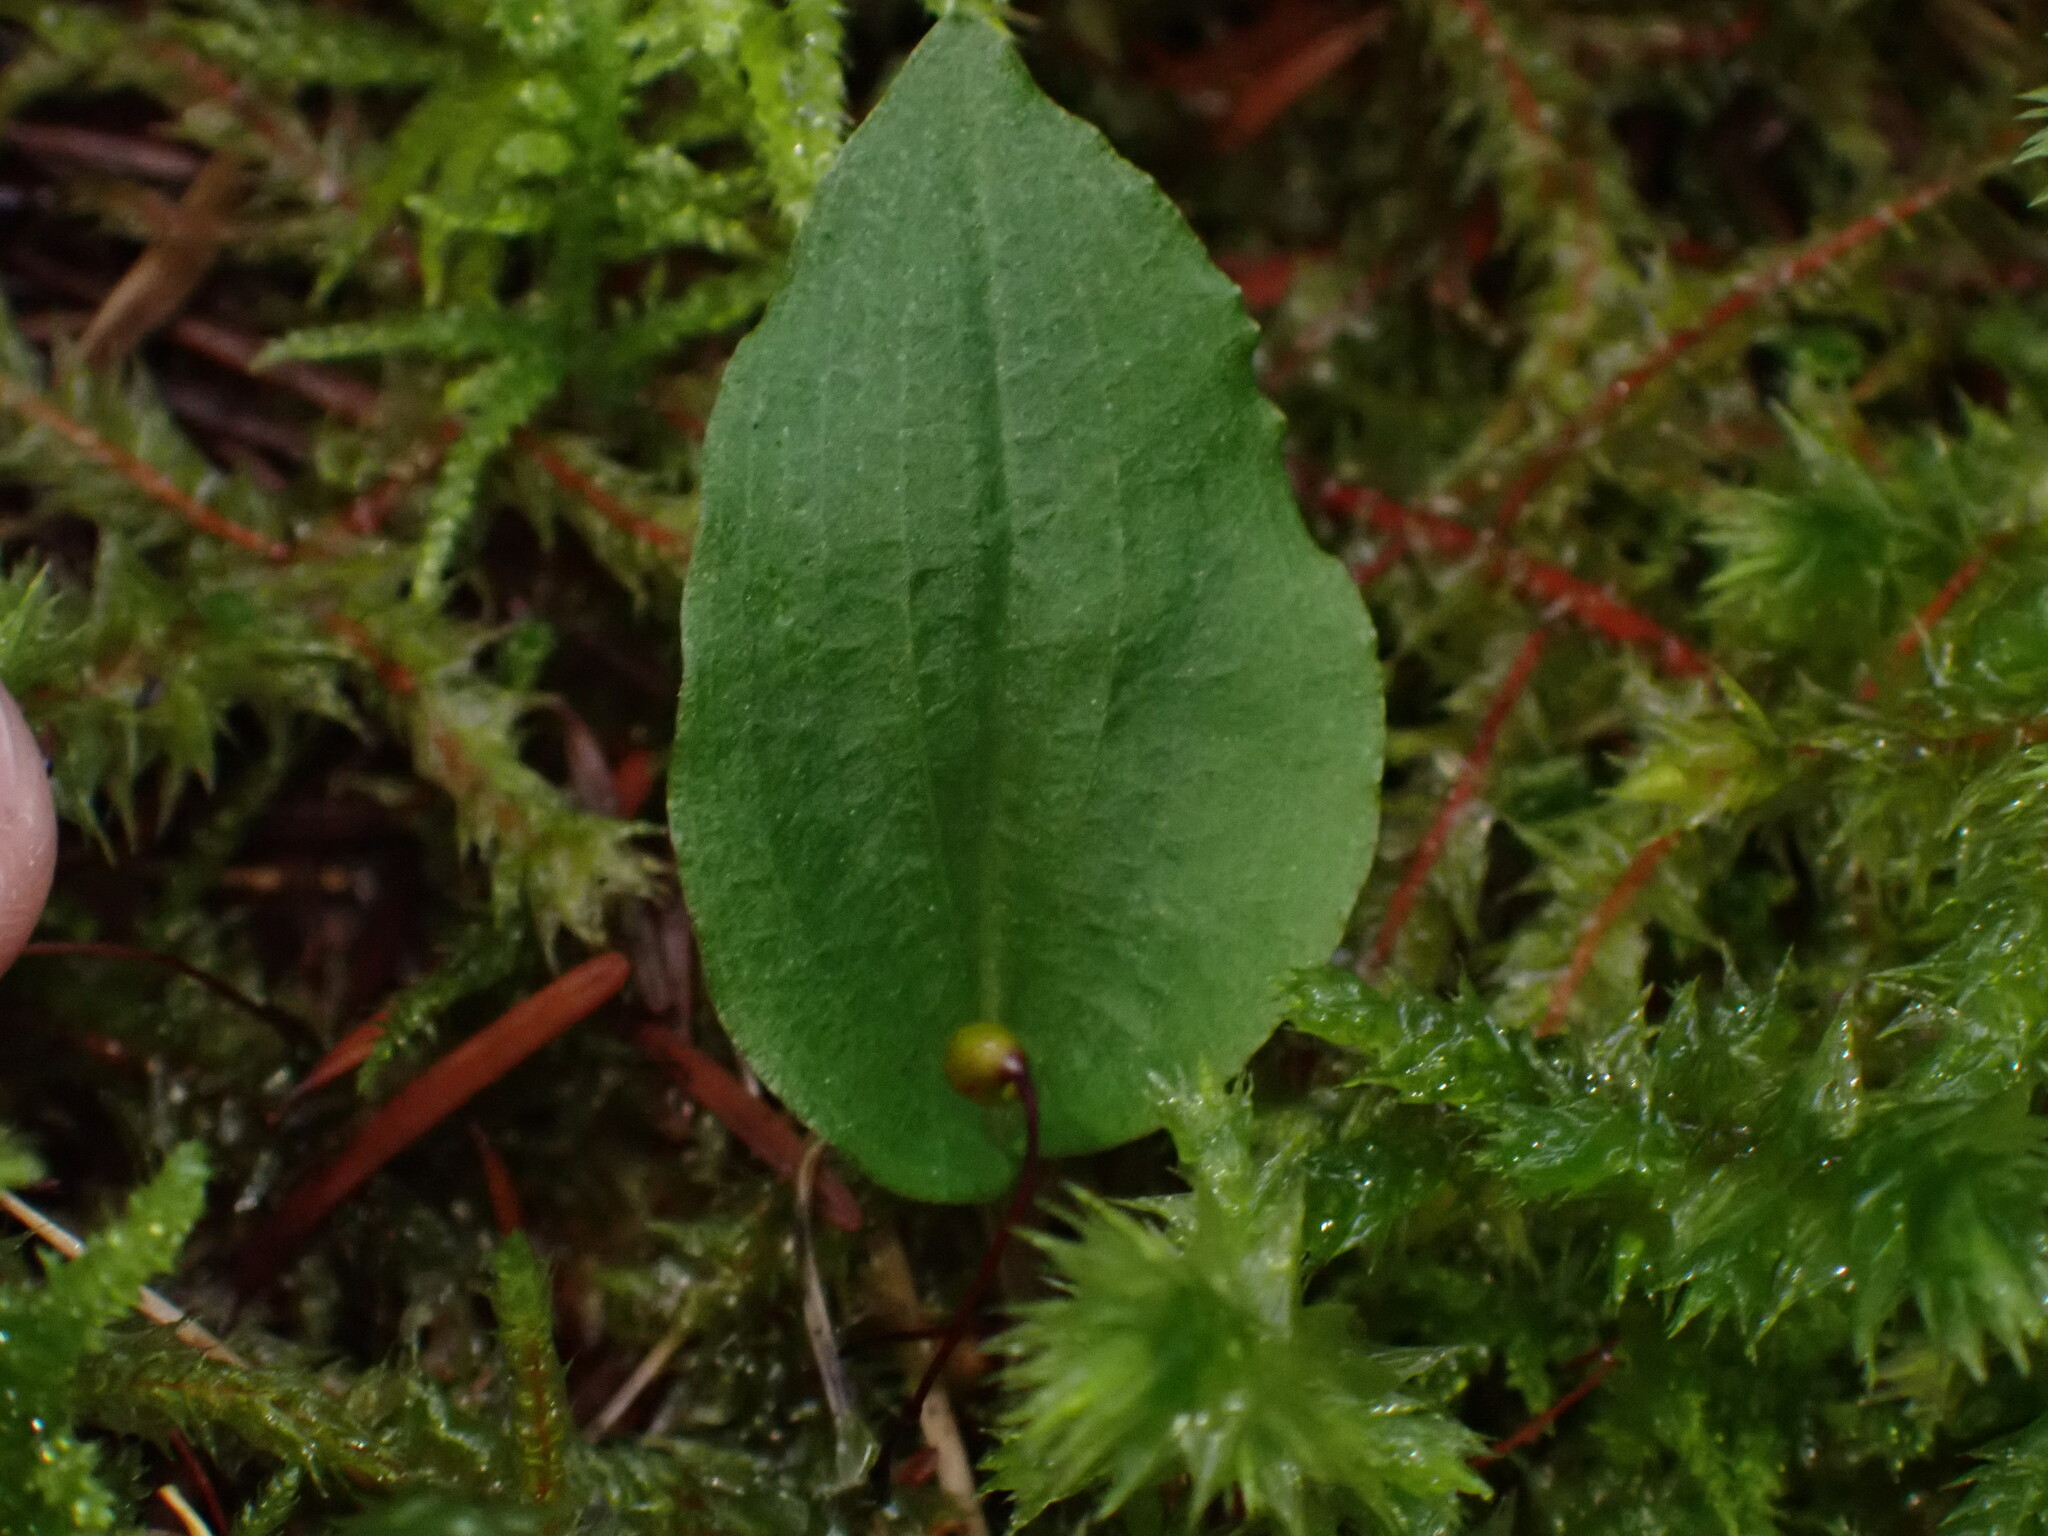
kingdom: Plantae
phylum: Tracheophyta
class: Liliopsida
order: Asparagales
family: Orchidaceae
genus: Calypso
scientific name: Calypso bulbosa
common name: Calypso
